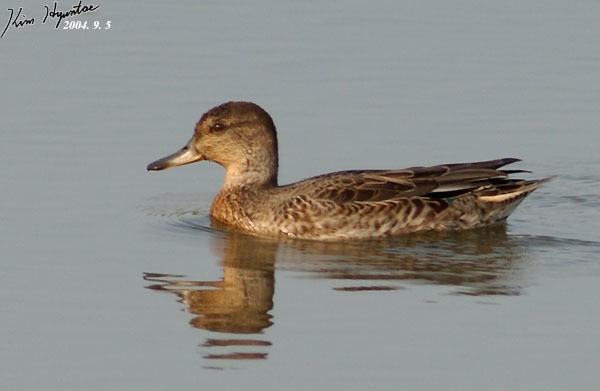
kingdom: Animalia
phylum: Chordata
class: Aves
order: Anseriformes
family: Anatidae
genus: Anas
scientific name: Anas crecca
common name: Eurasian teal
